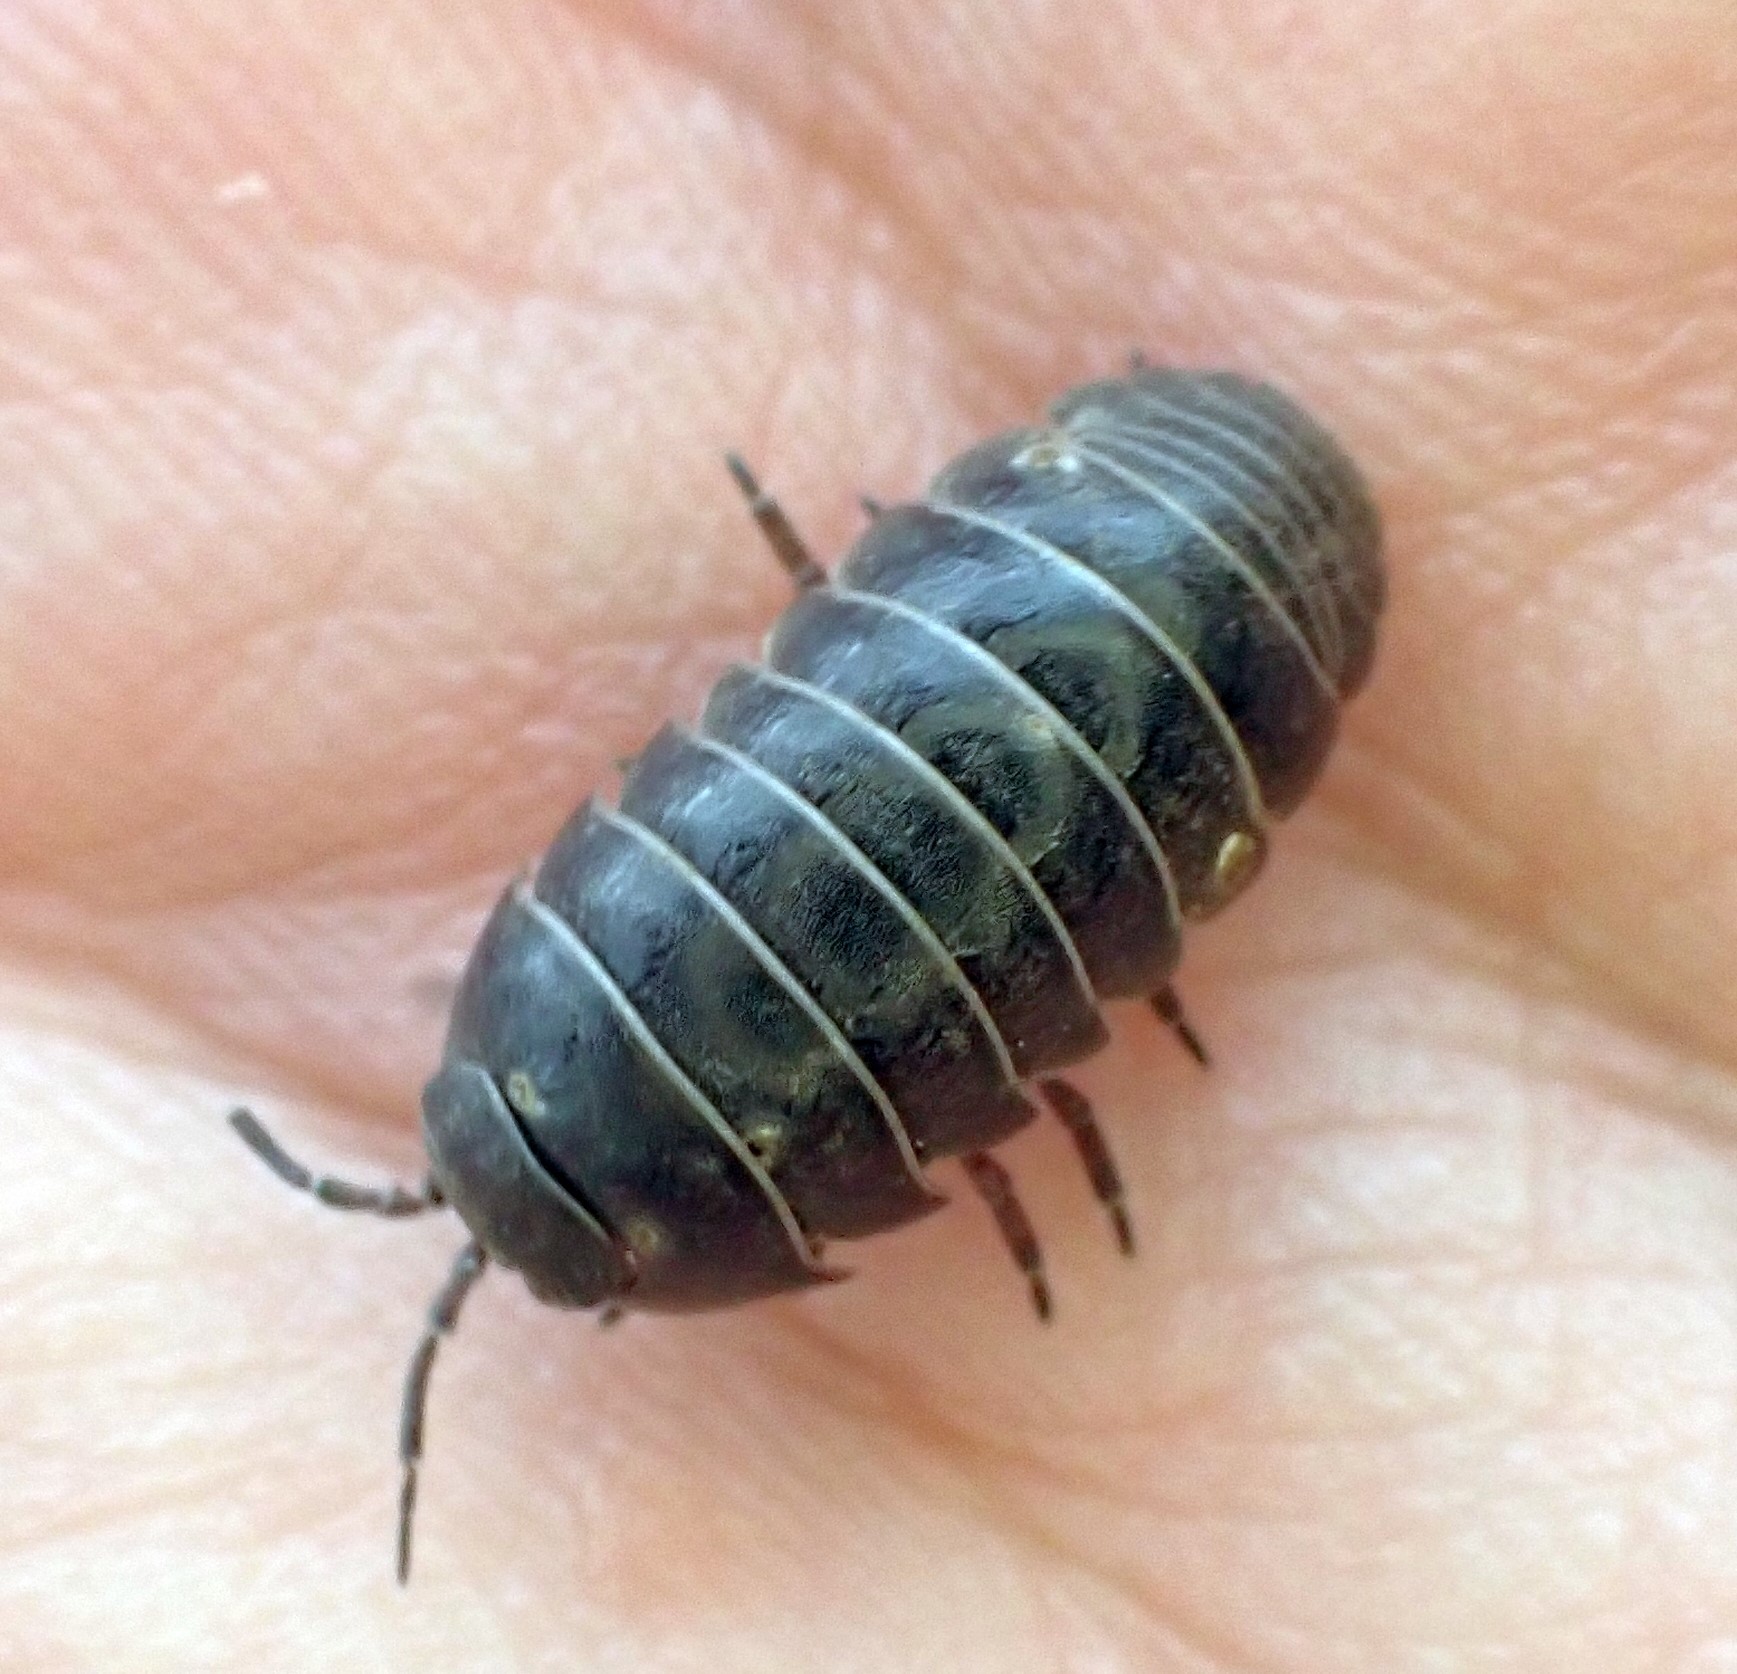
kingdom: Animalia
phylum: Arthropoda
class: Malacostraca
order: Isopoda
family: Armadillidiidae
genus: Armadillidium
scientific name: Armadillidium vulgare
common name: Common pill woodlouse
